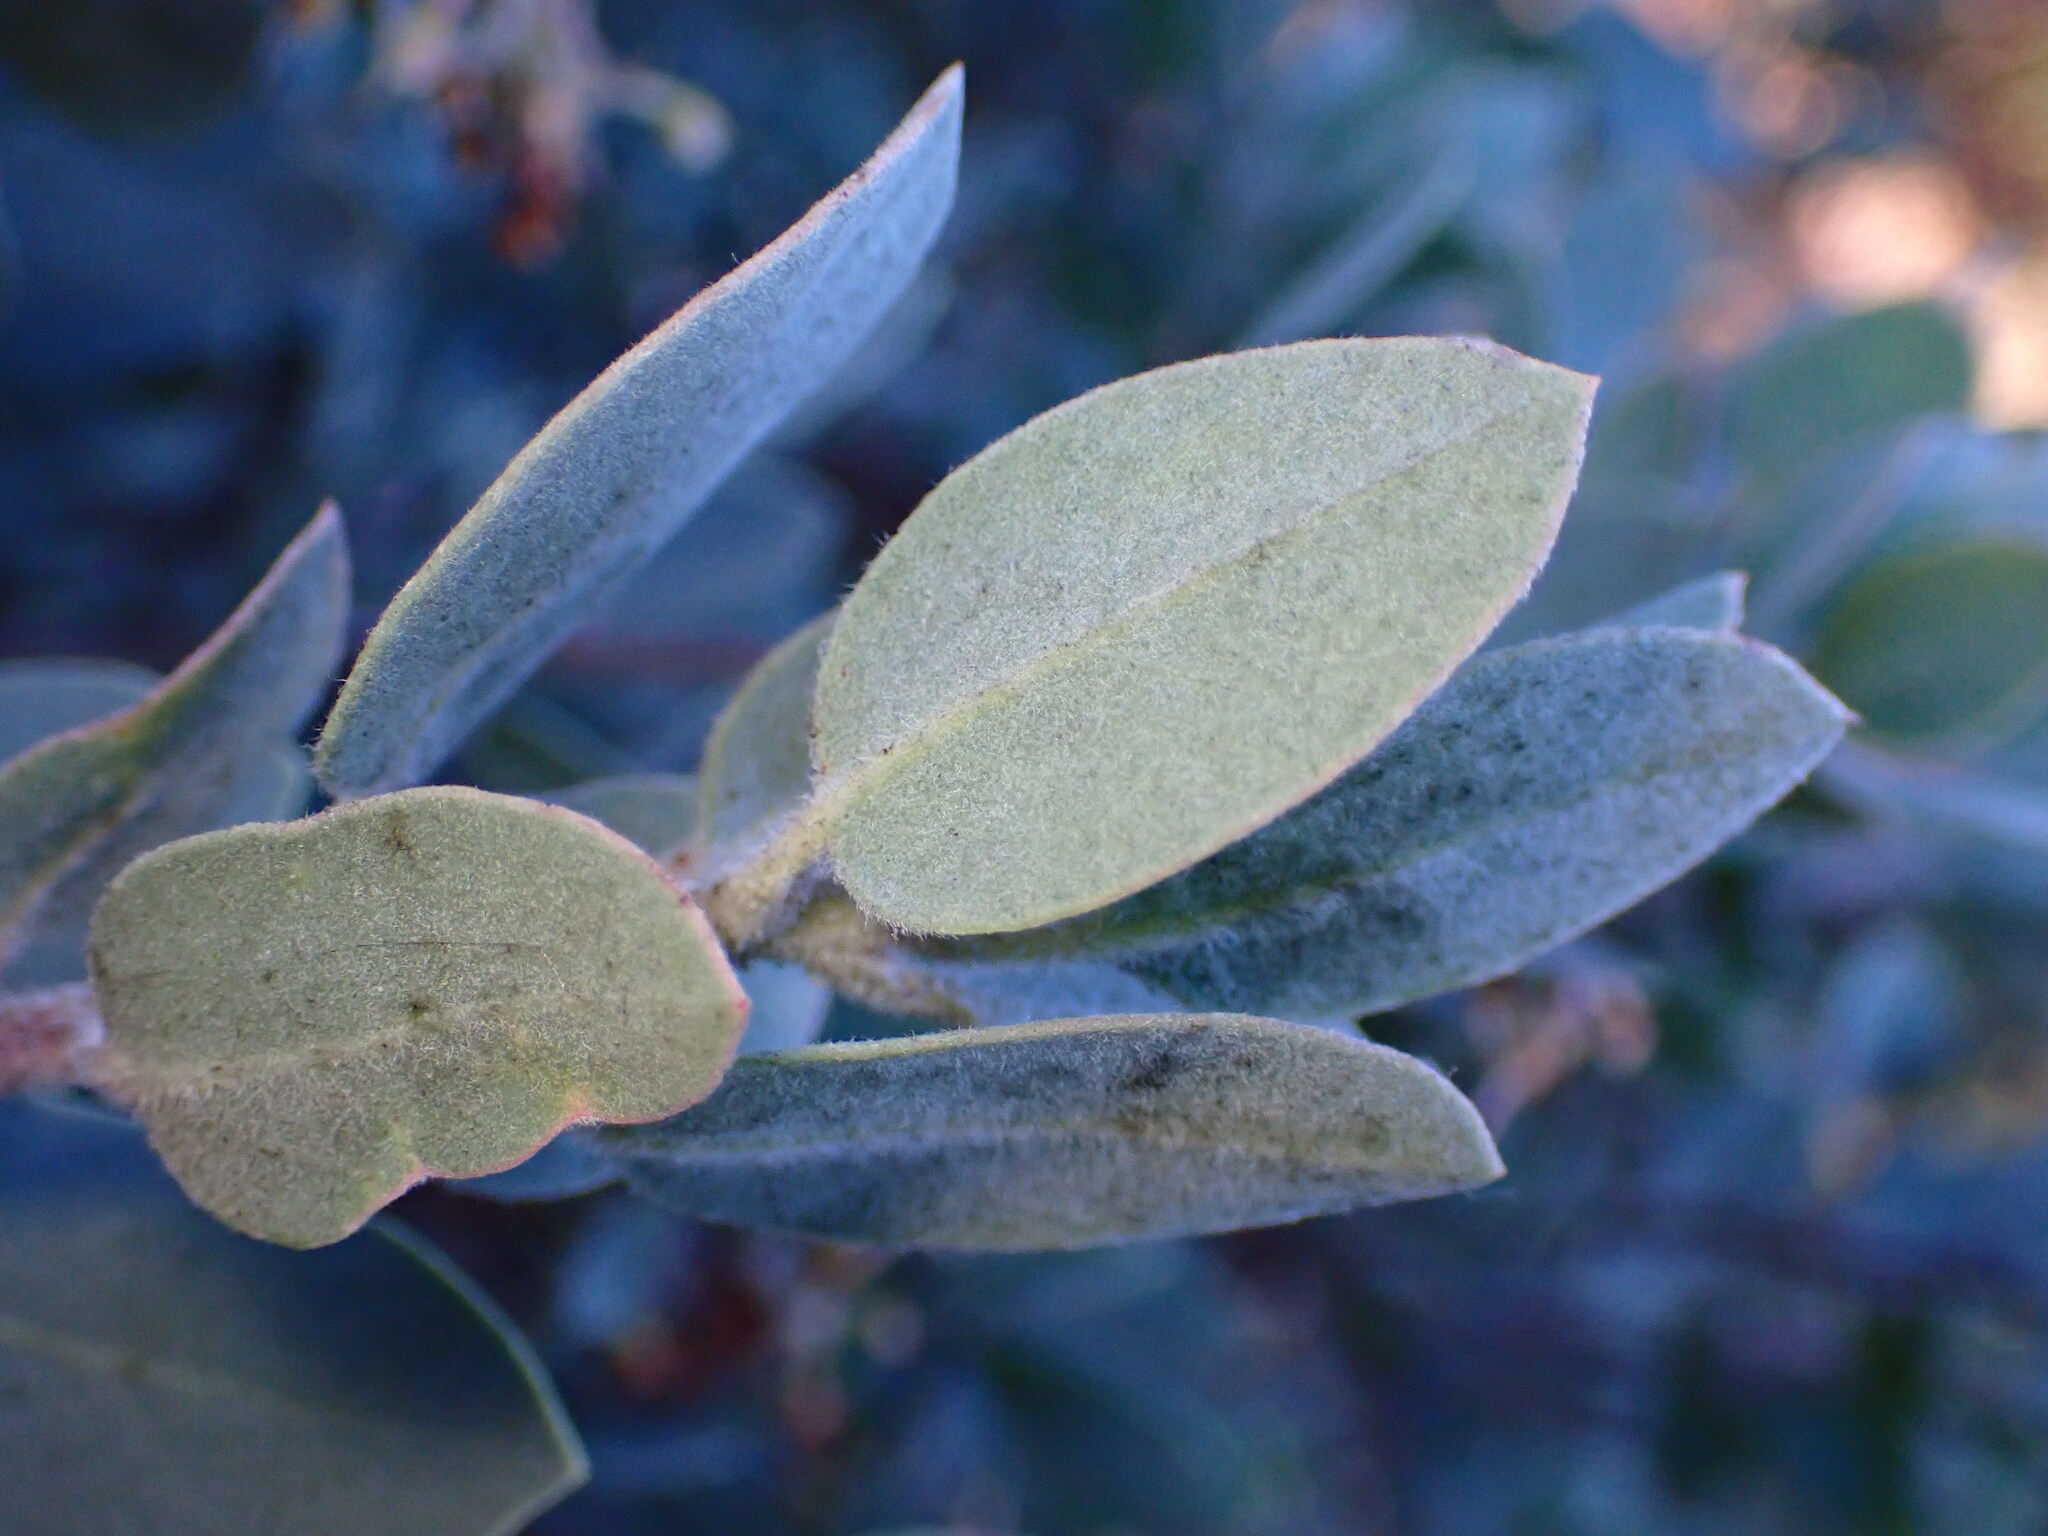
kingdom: Plantae
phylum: Tracheophyta
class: Magnoliopsida
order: Ericales
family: Ericaceae
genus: Arctostaphylos
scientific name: Arctostaphylos silvicola
